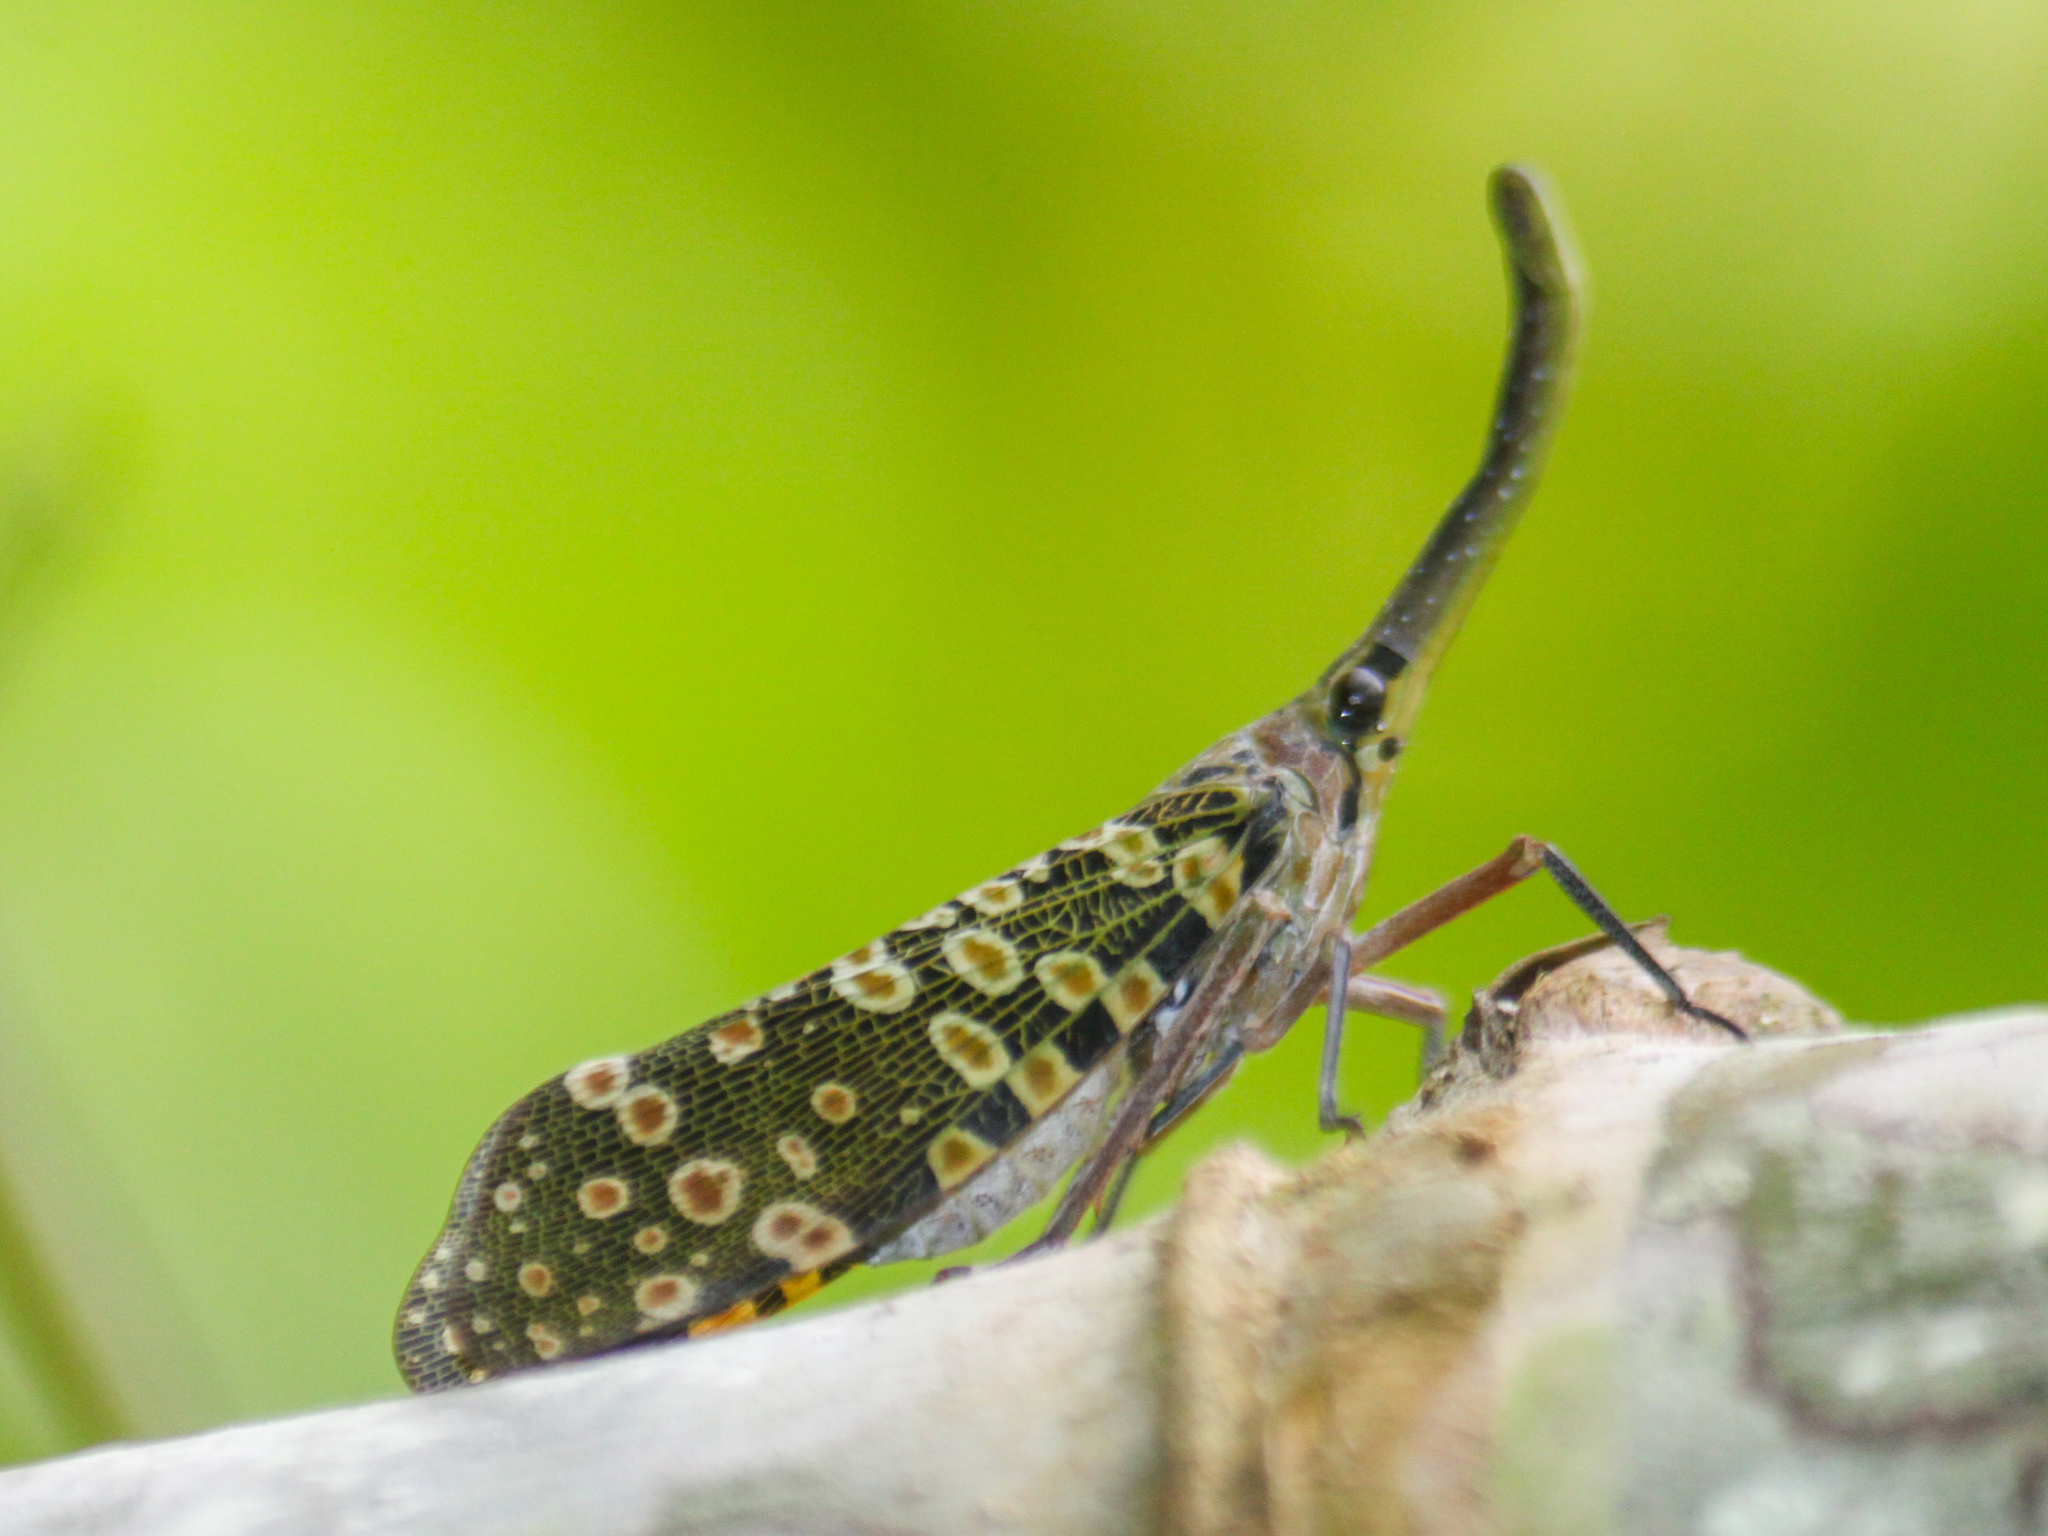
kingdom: Animalia
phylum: Arthropoda
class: Insecta
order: Hemiptera
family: Fulgoridae
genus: Pyrops
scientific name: Pyrops condorinus
